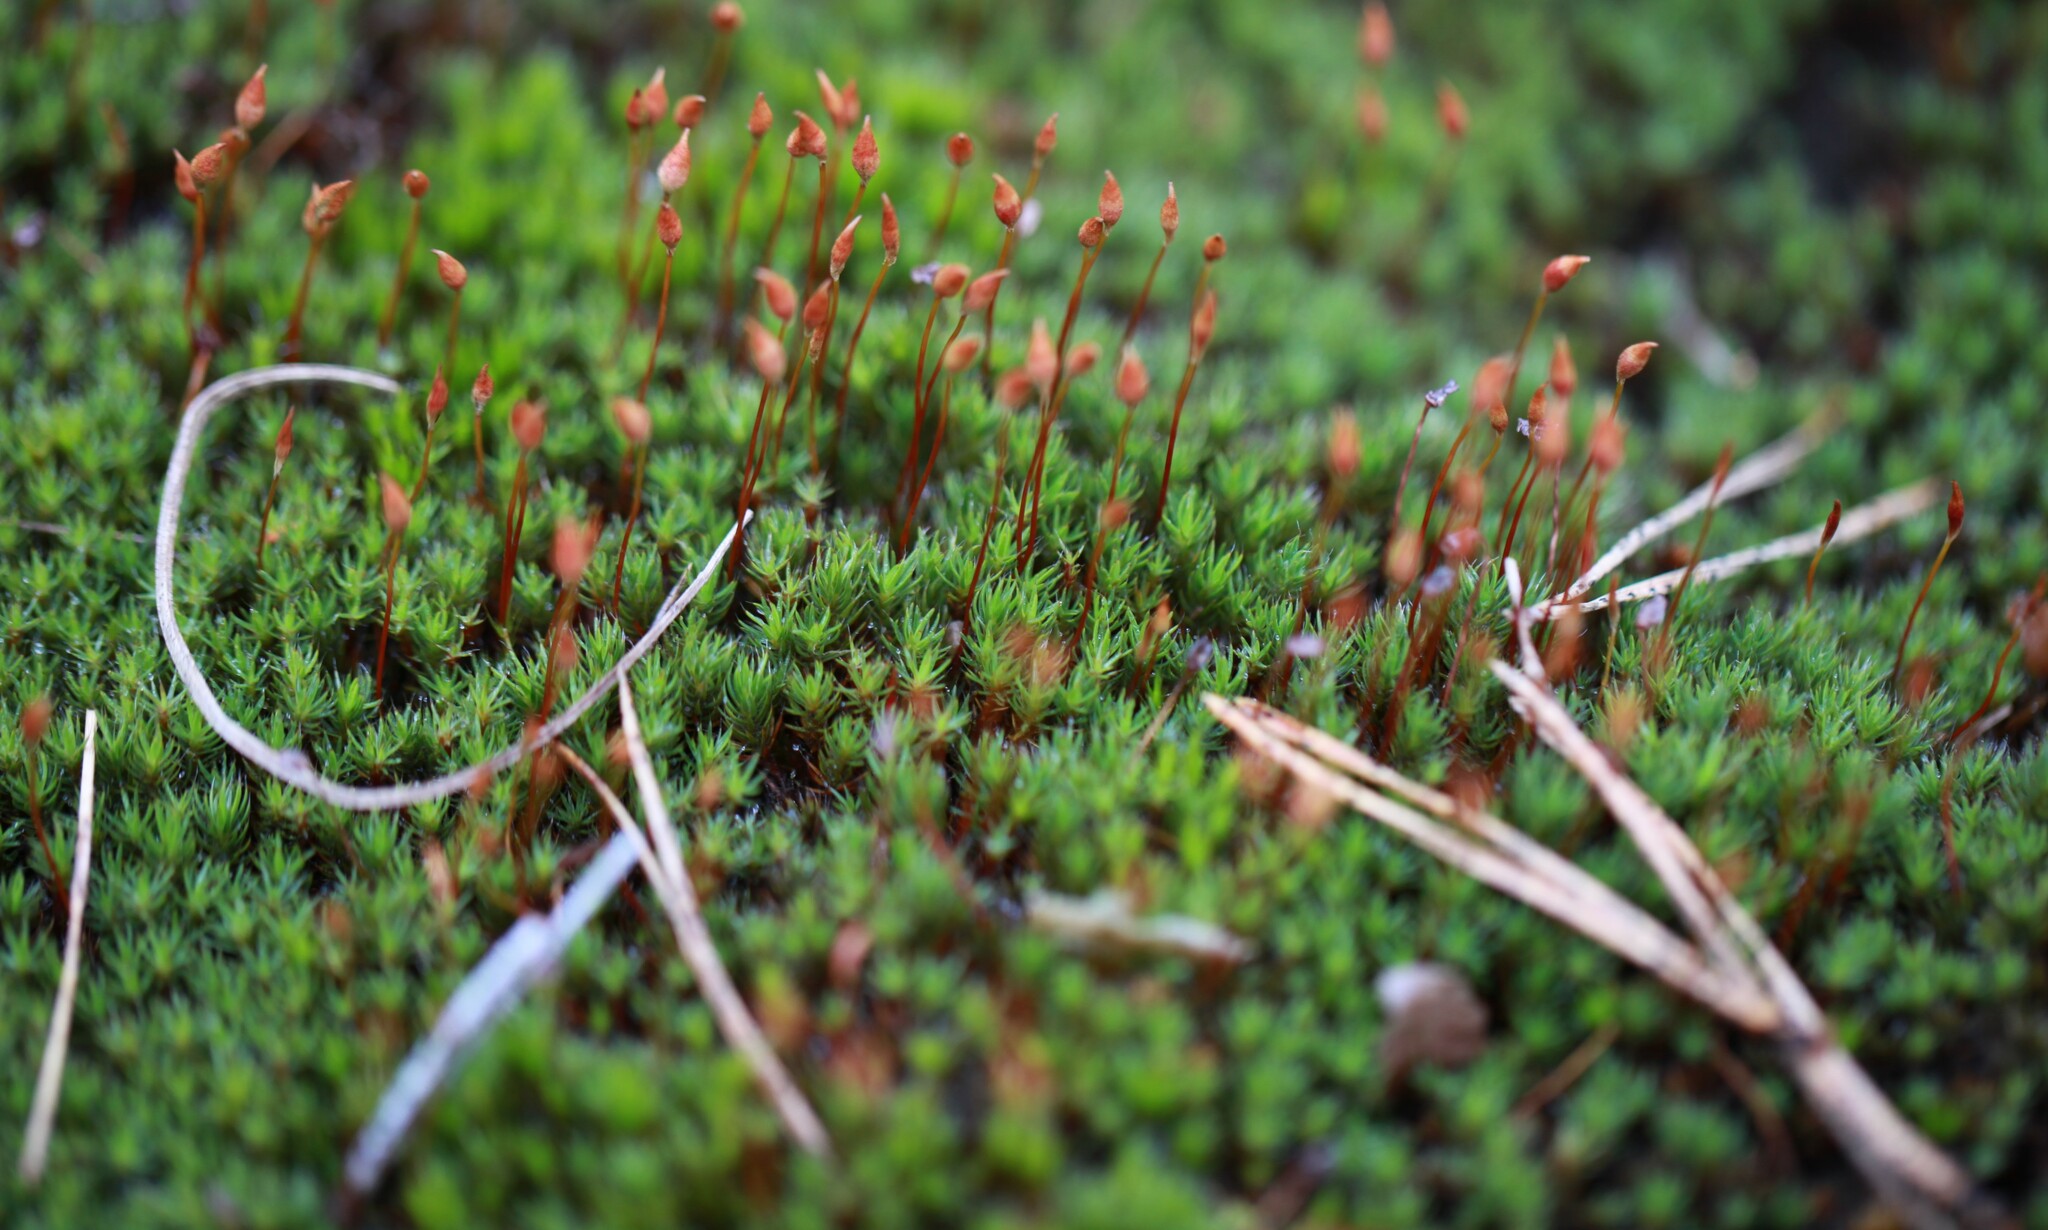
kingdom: Plantae
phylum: Bryophyta
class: Polytrichopsida
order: Polytrichales
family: Polytrichaceae
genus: Polytrichum
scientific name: Polytrichum piliferum
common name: Bristly haircap
